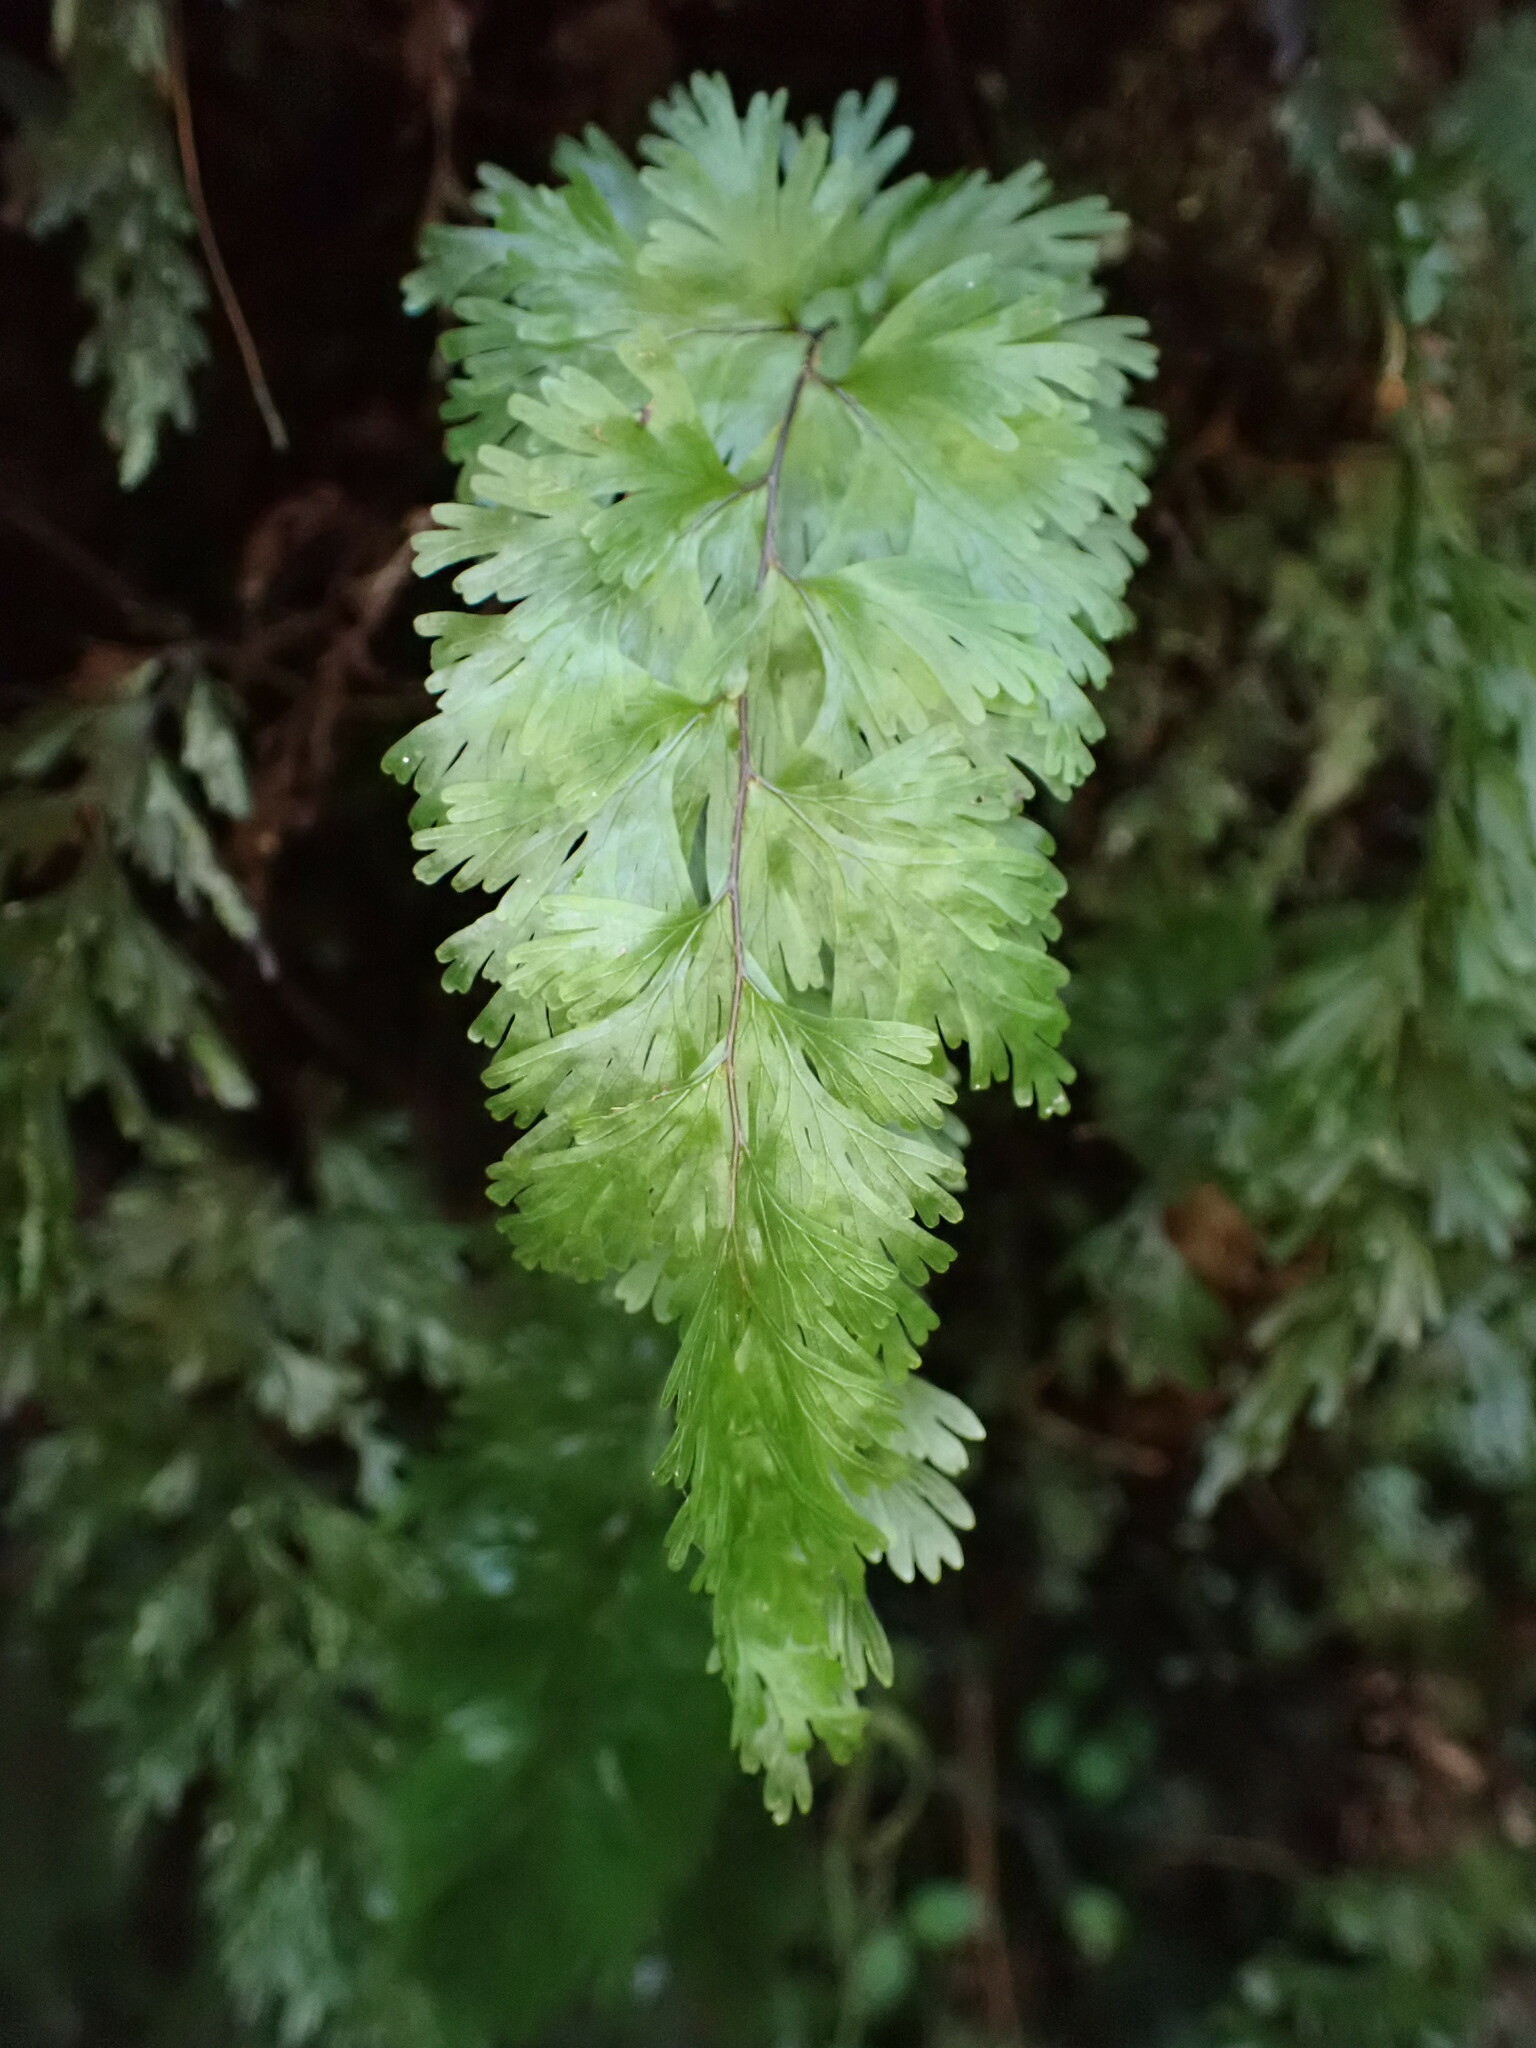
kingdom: Plantae
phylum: Tracheophyta
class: Polypodiopsida
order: Hymenophyllales
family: Hymenophyllaceae
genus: Hymenophyllum
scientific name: Hymenophyllum flabellatum
